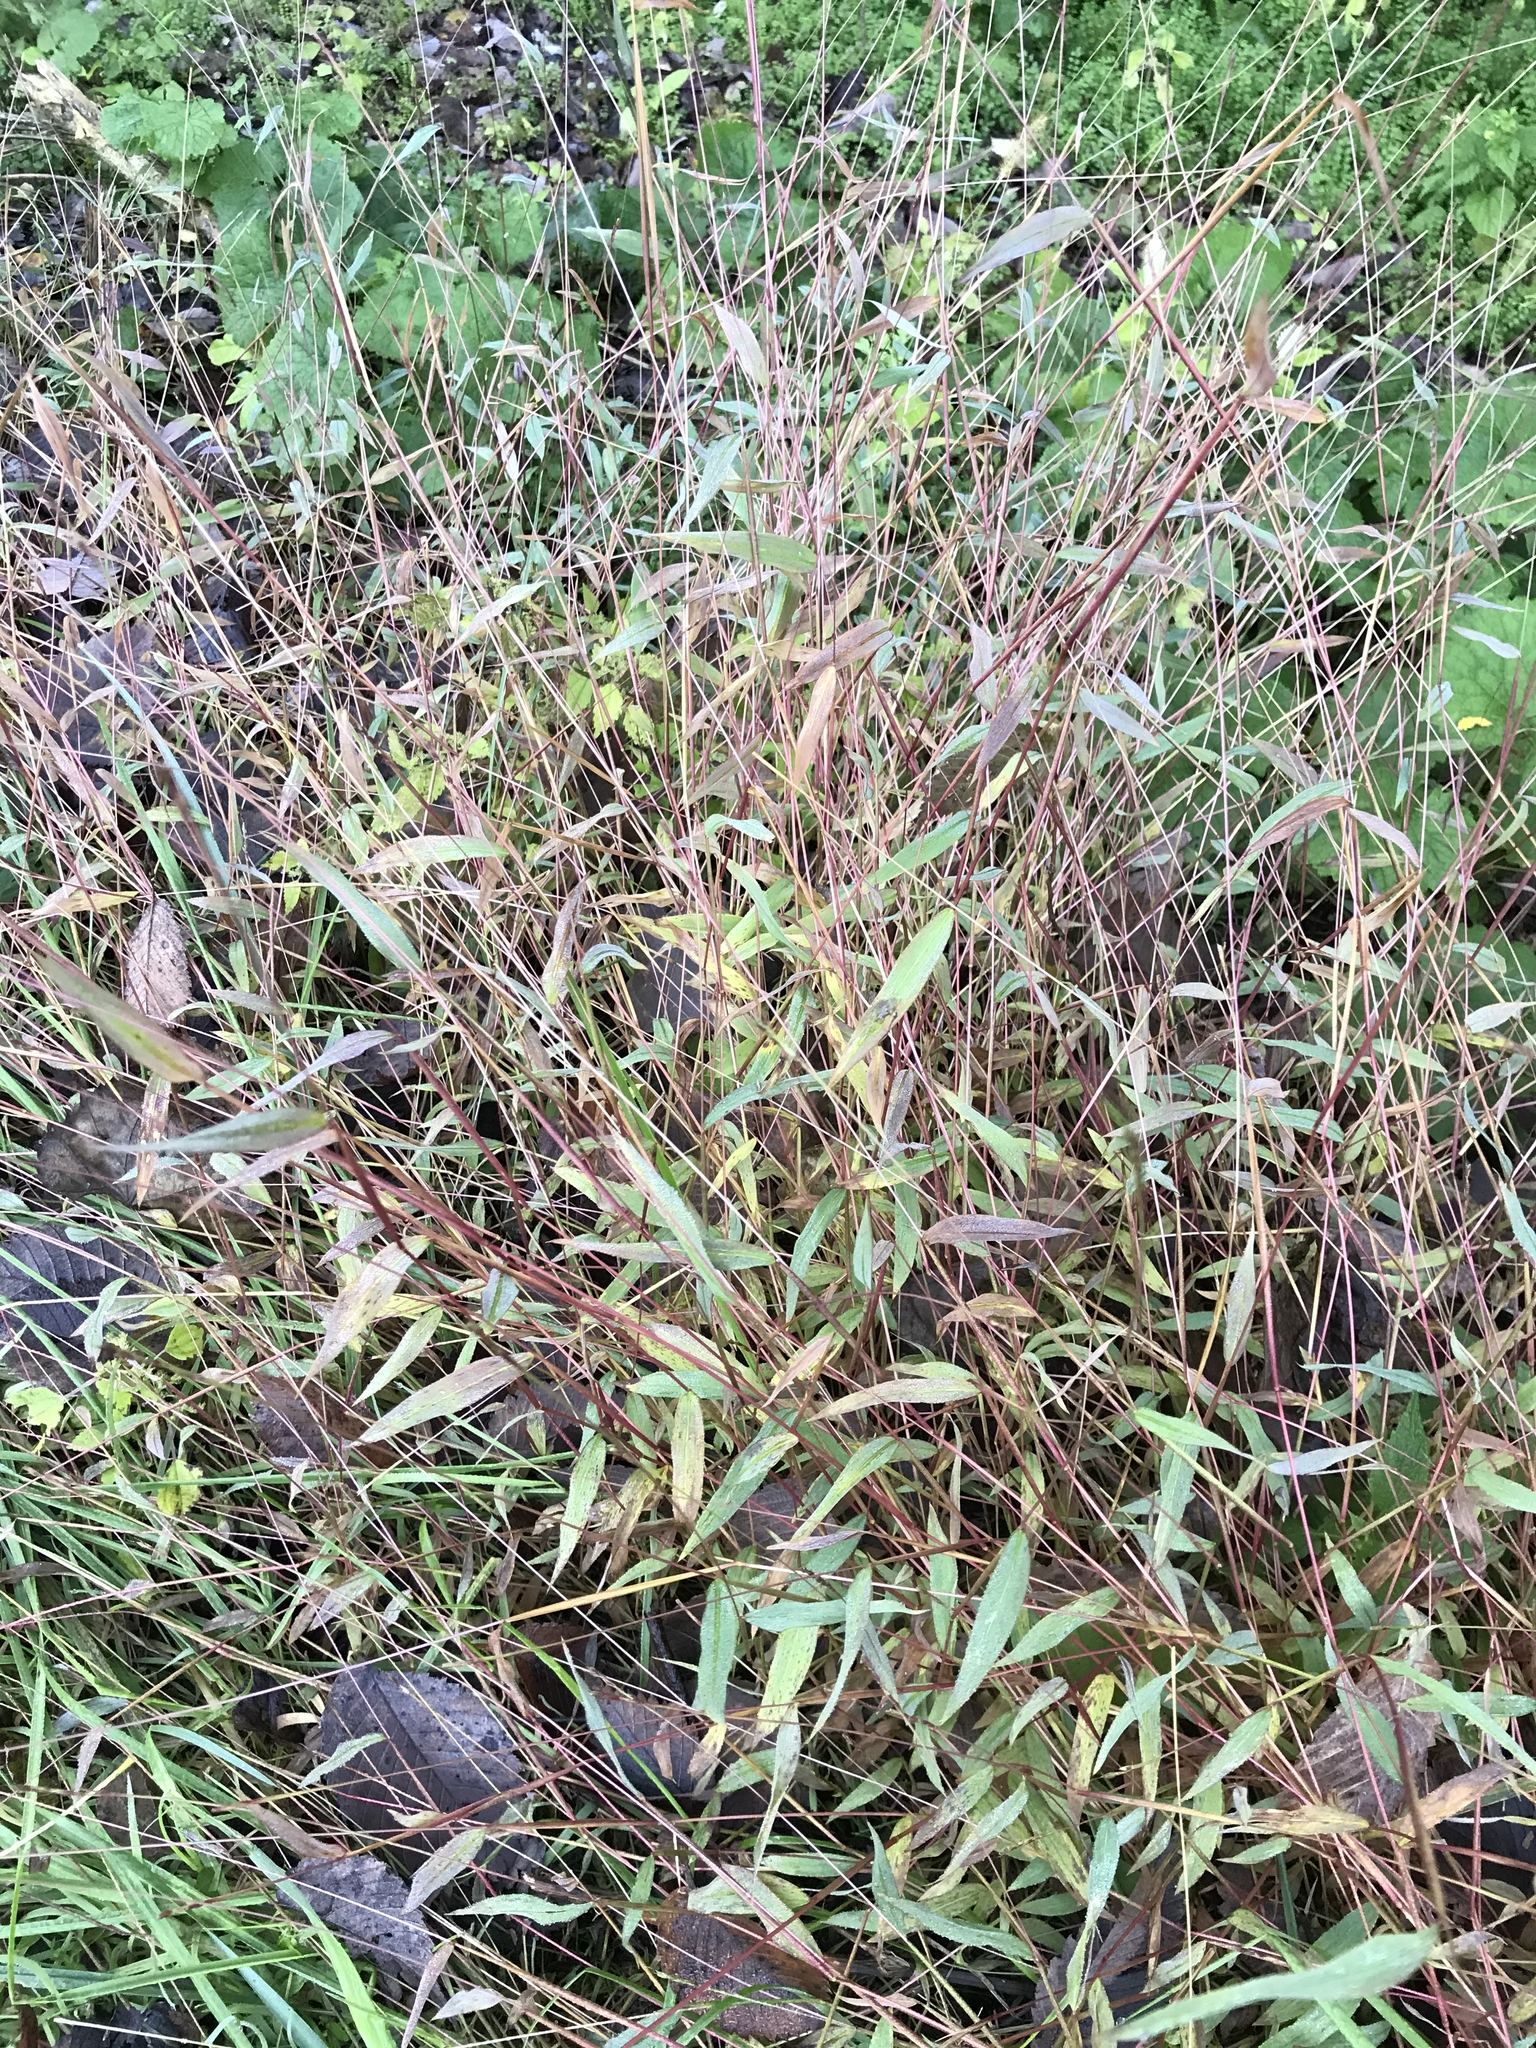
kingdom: Plantae
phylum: Tracheophyta
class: Liliopsida
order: Poales
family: Poaceae
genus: Microstegium
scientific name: Microstegium vimineum
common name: Japanese stiltgrass
